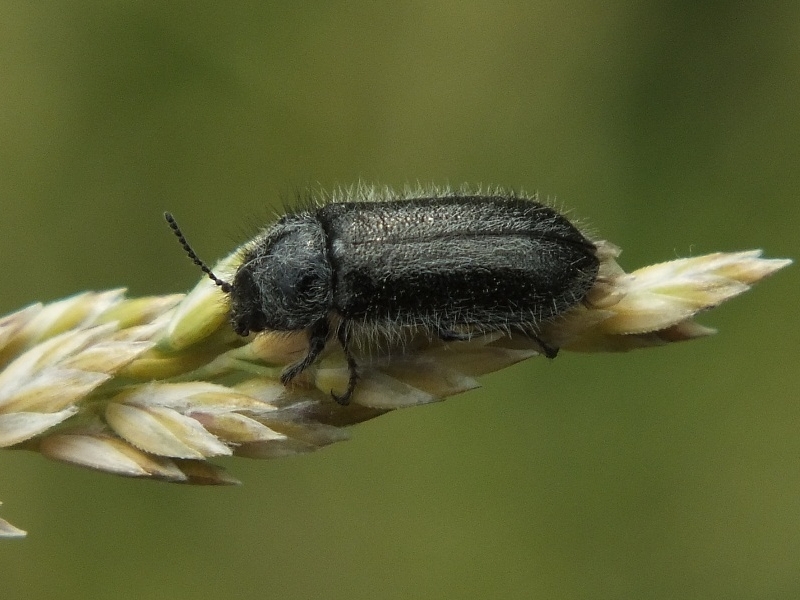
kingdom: Animalia
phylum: Arthropoda
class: Insecta
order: Coleoptera
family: Melyridae
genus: Enicopus
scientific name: Enicopus ater
